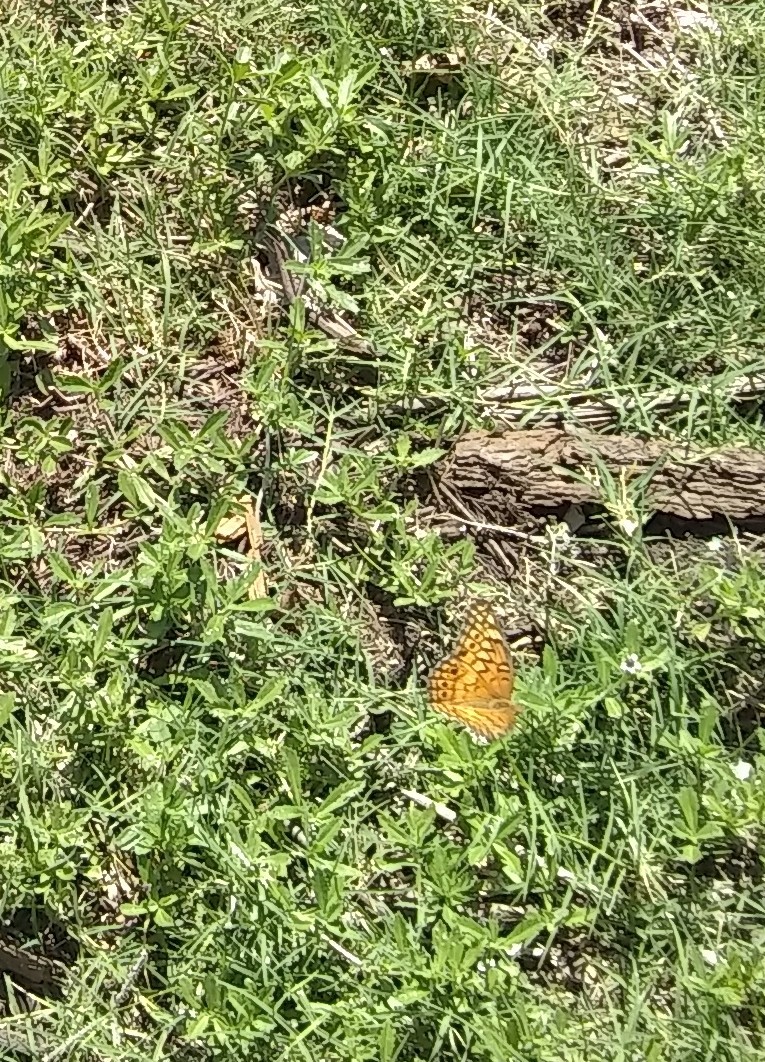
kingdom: Animalia
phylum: Arthropoda
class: Insecta
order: Lepidoptera
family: Nymphalidae
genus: Euptoieta
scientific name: Euptoieta claudia
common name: Variegated fritillary
